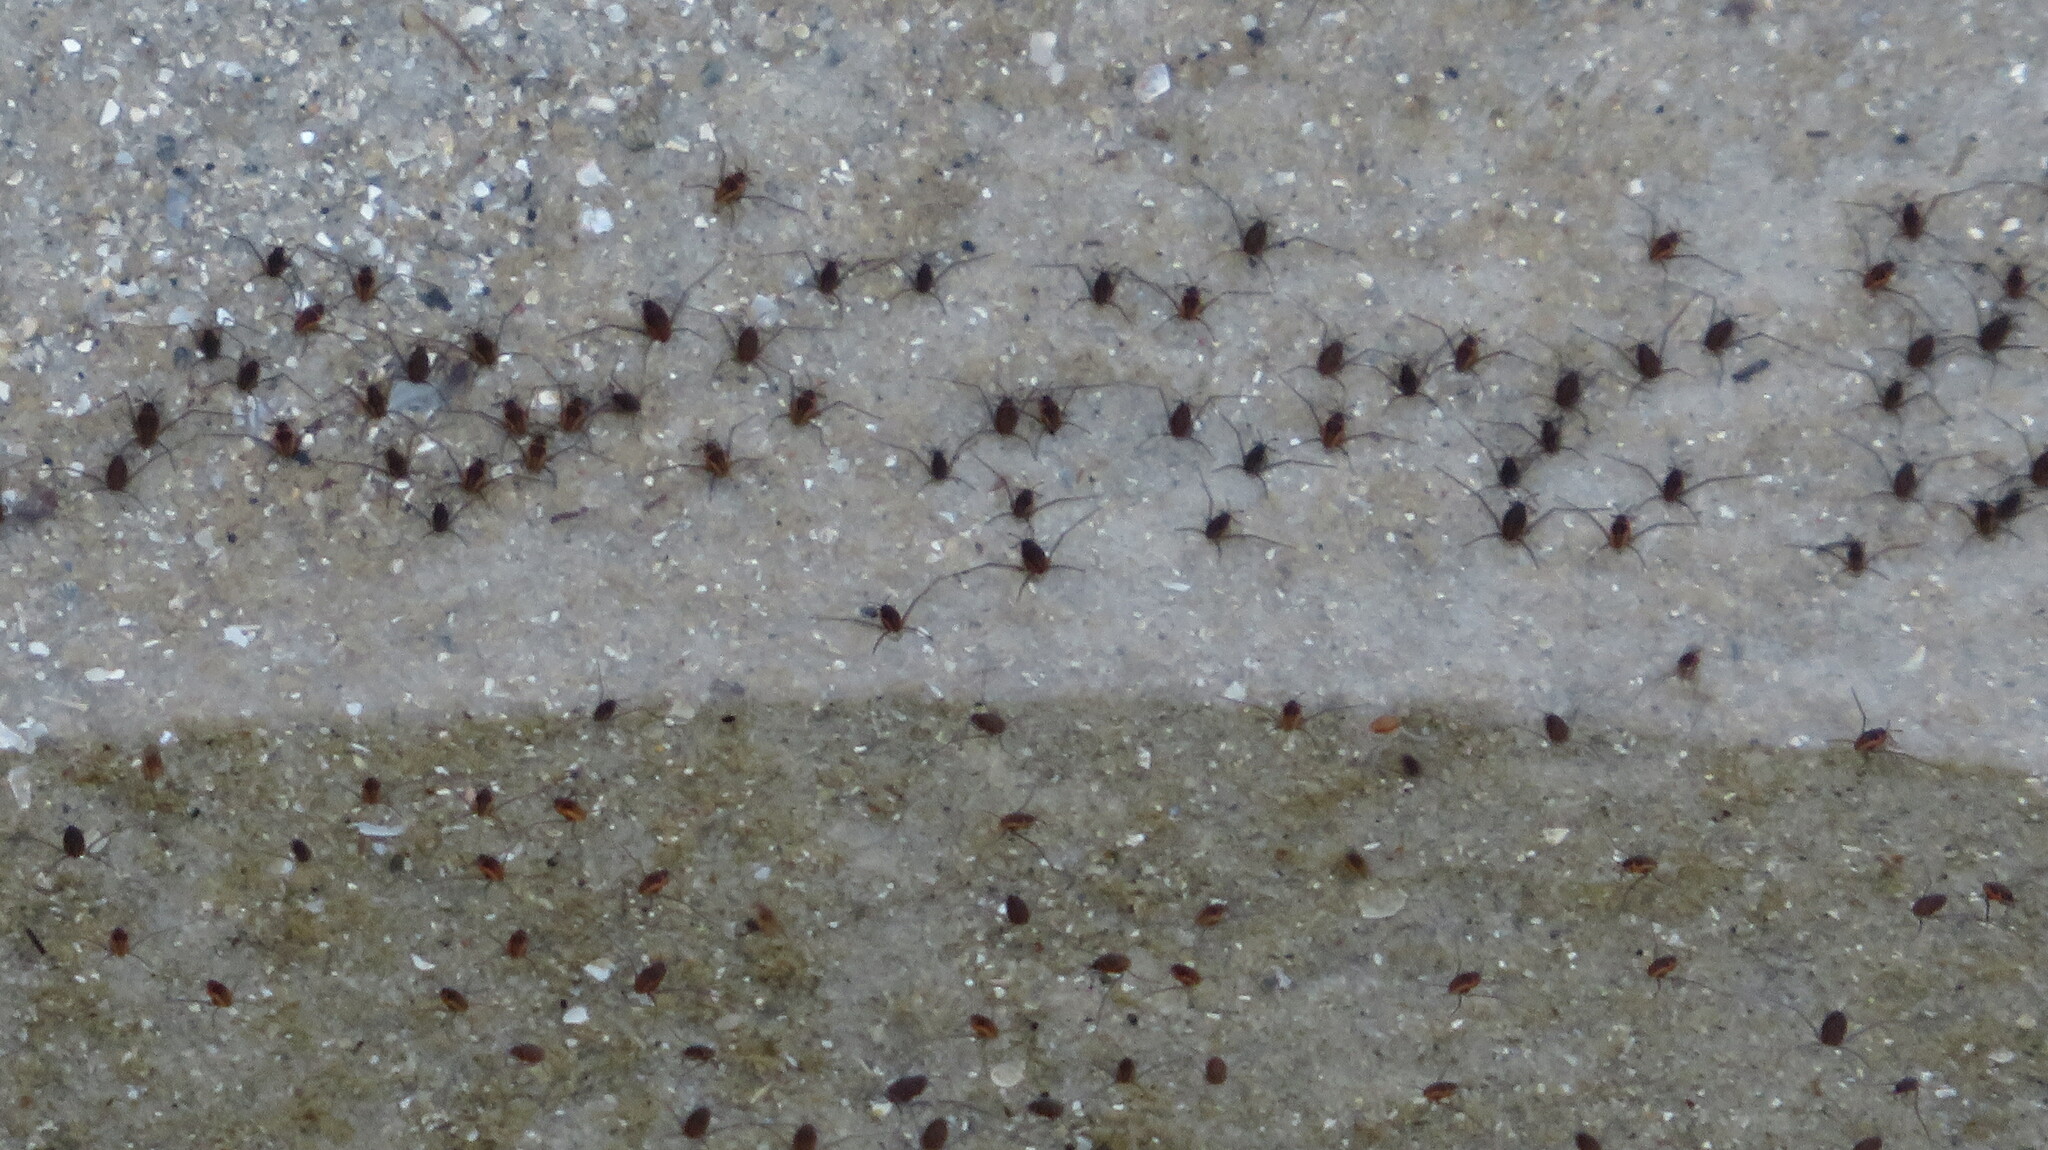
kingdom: Animalia
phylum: Arthropoda
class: Insecta
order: Hemiptera
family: Veliidae
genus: Halovelia
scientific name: Halovelia
